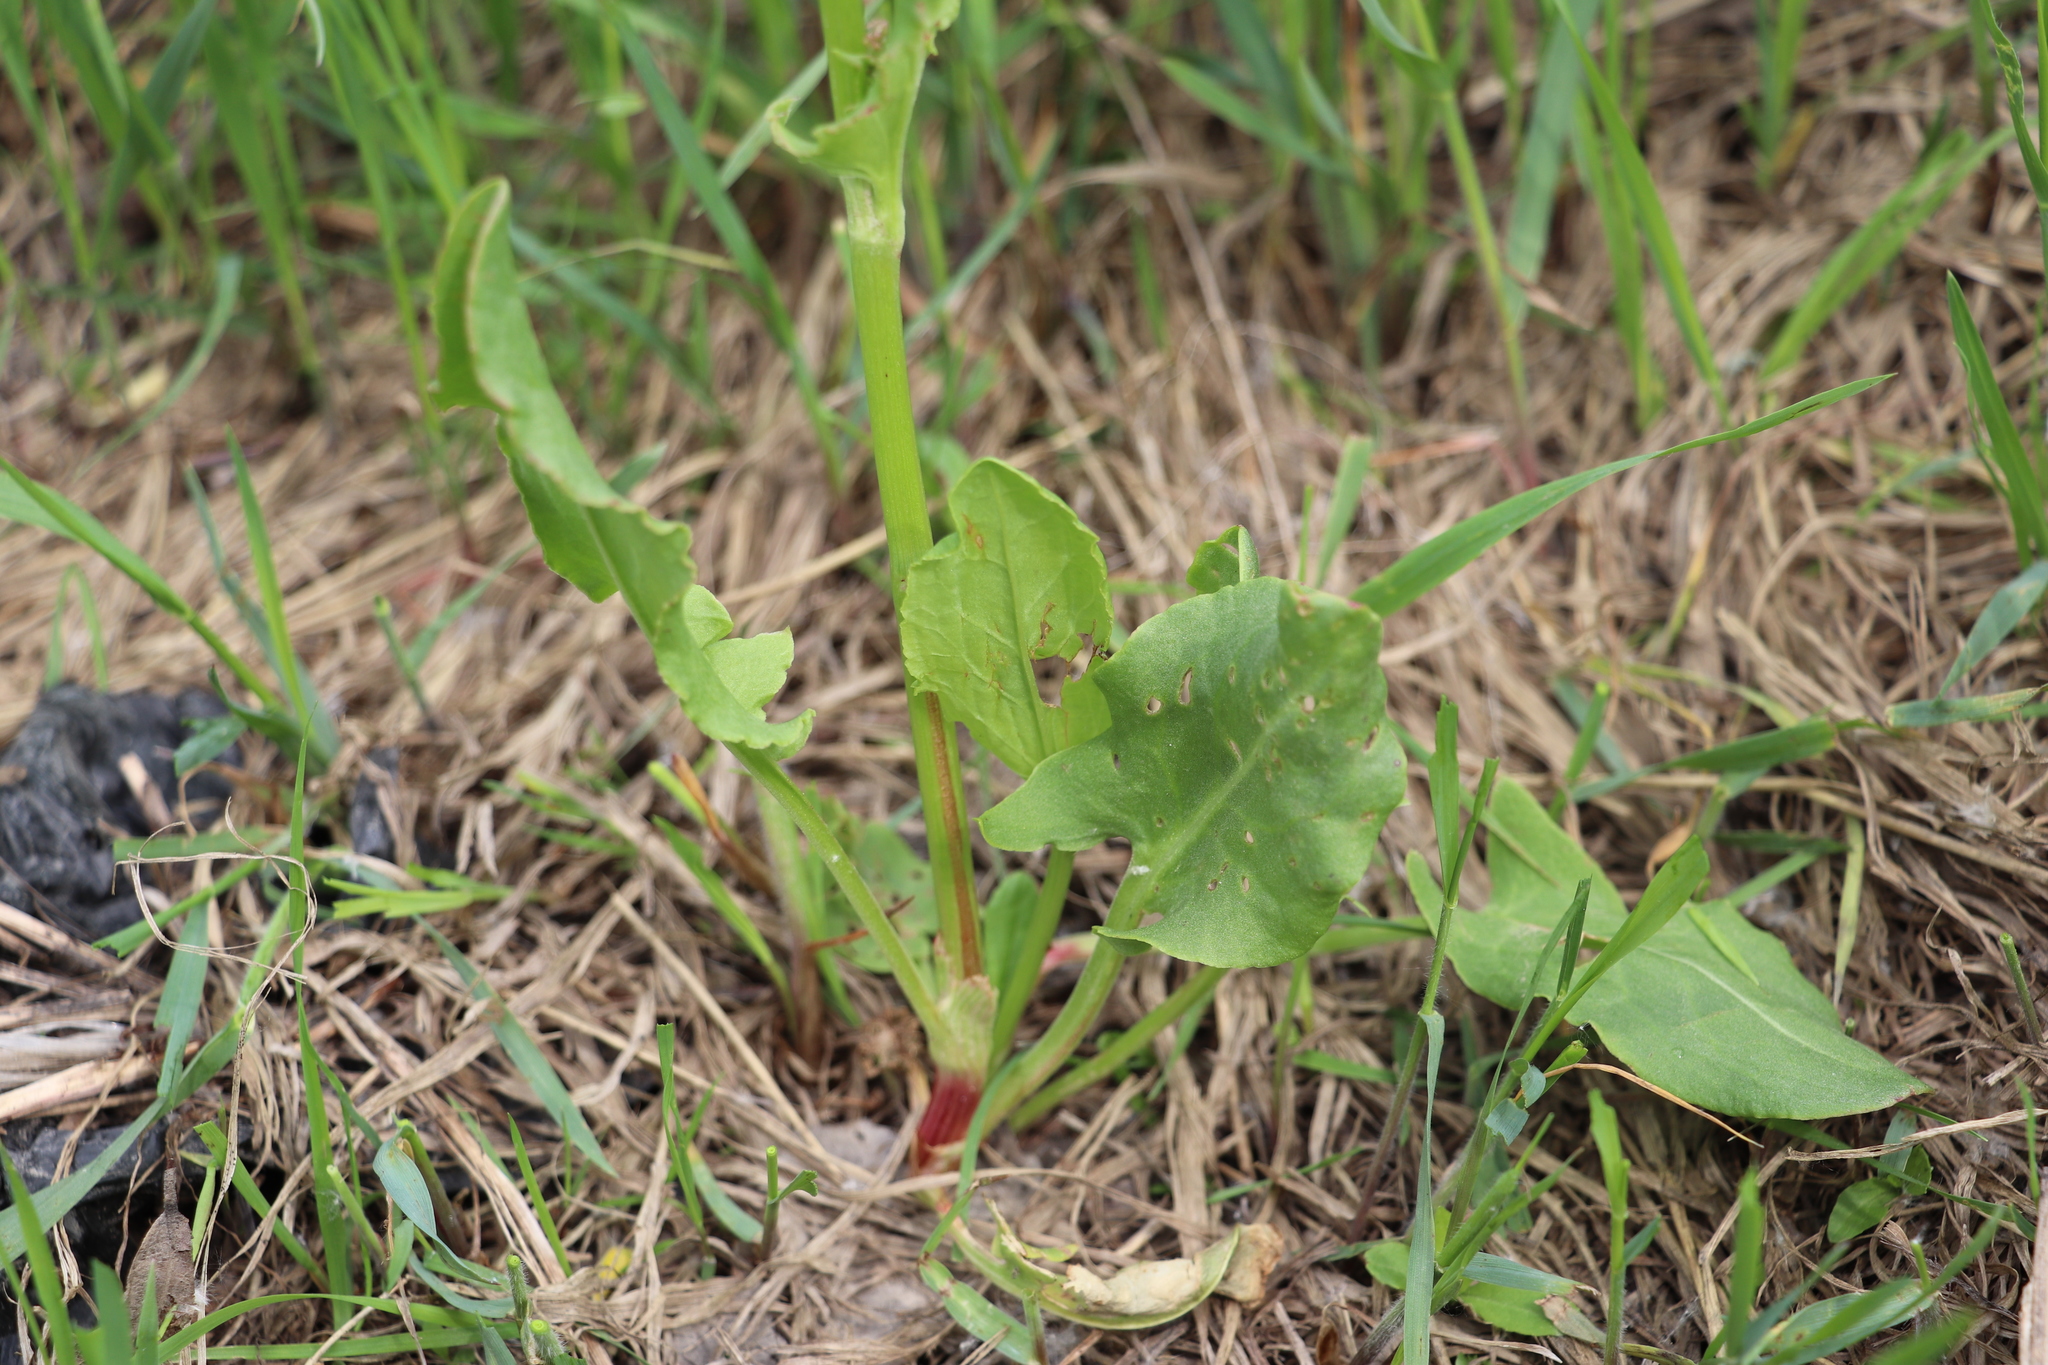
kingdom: Plantae
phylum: Tracheophyta
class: Magnoliopsida
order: Caryophyllales
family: Polygonaceae
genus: Rumex
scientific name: Rumex acetosa
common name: Garden sorrel
